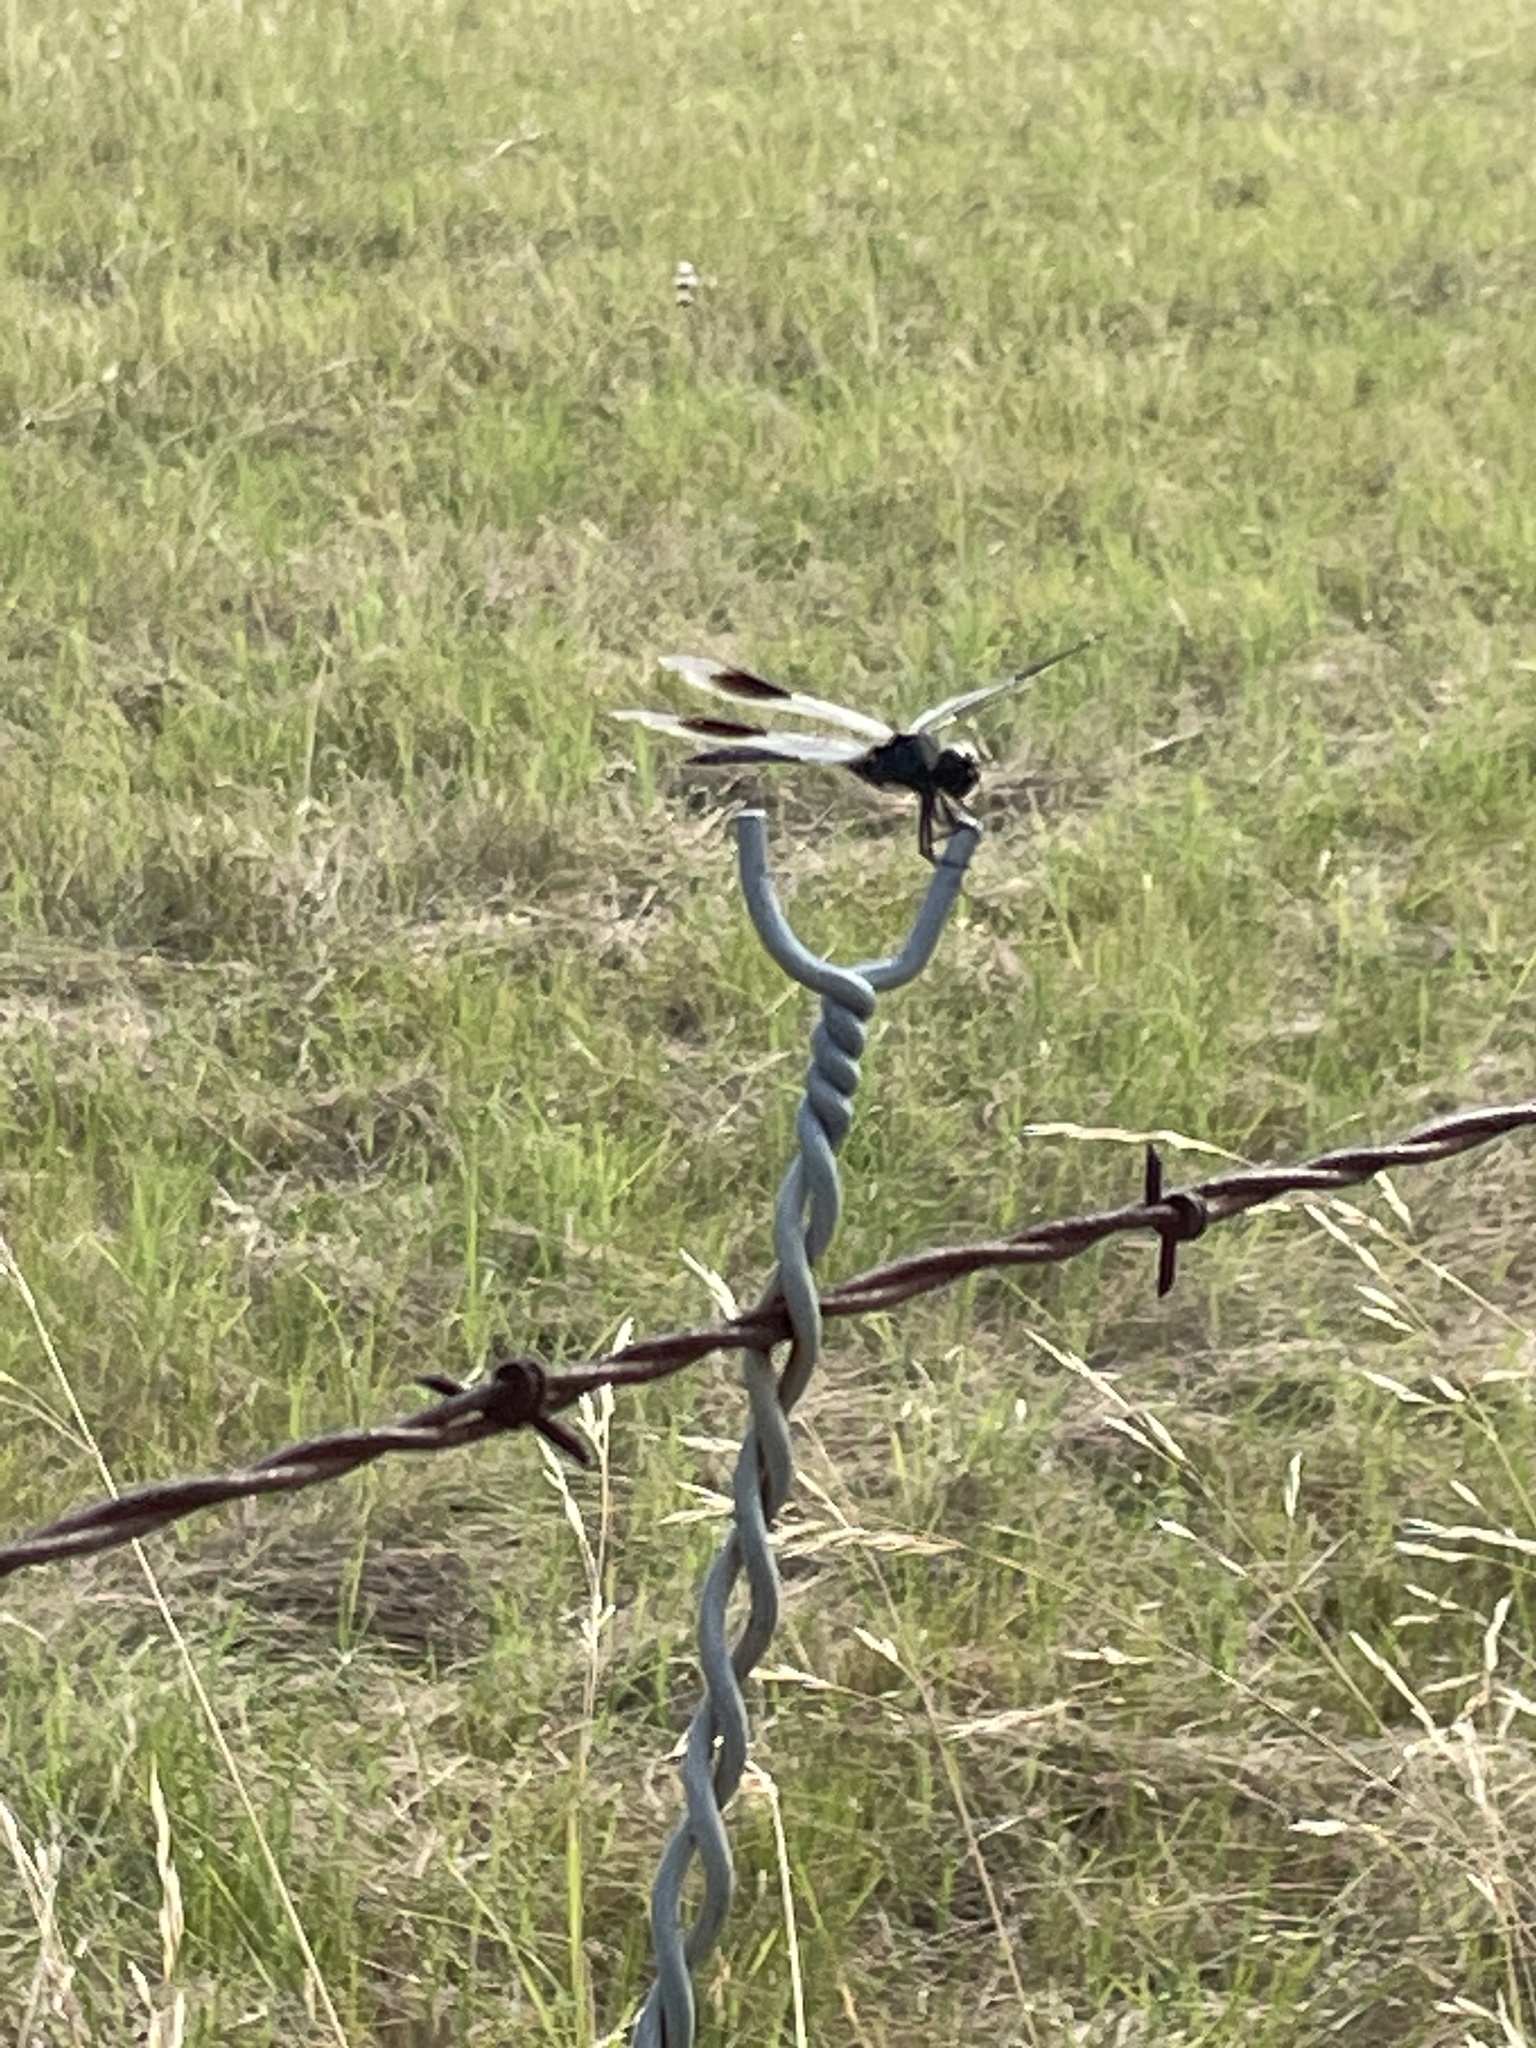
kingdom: Animalia
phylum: Arthropoda
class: Insecta
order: Odonata
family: Libellulidae
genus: Brachymesia
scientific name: Brachymesia gravida
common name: Four-spotted pennant
